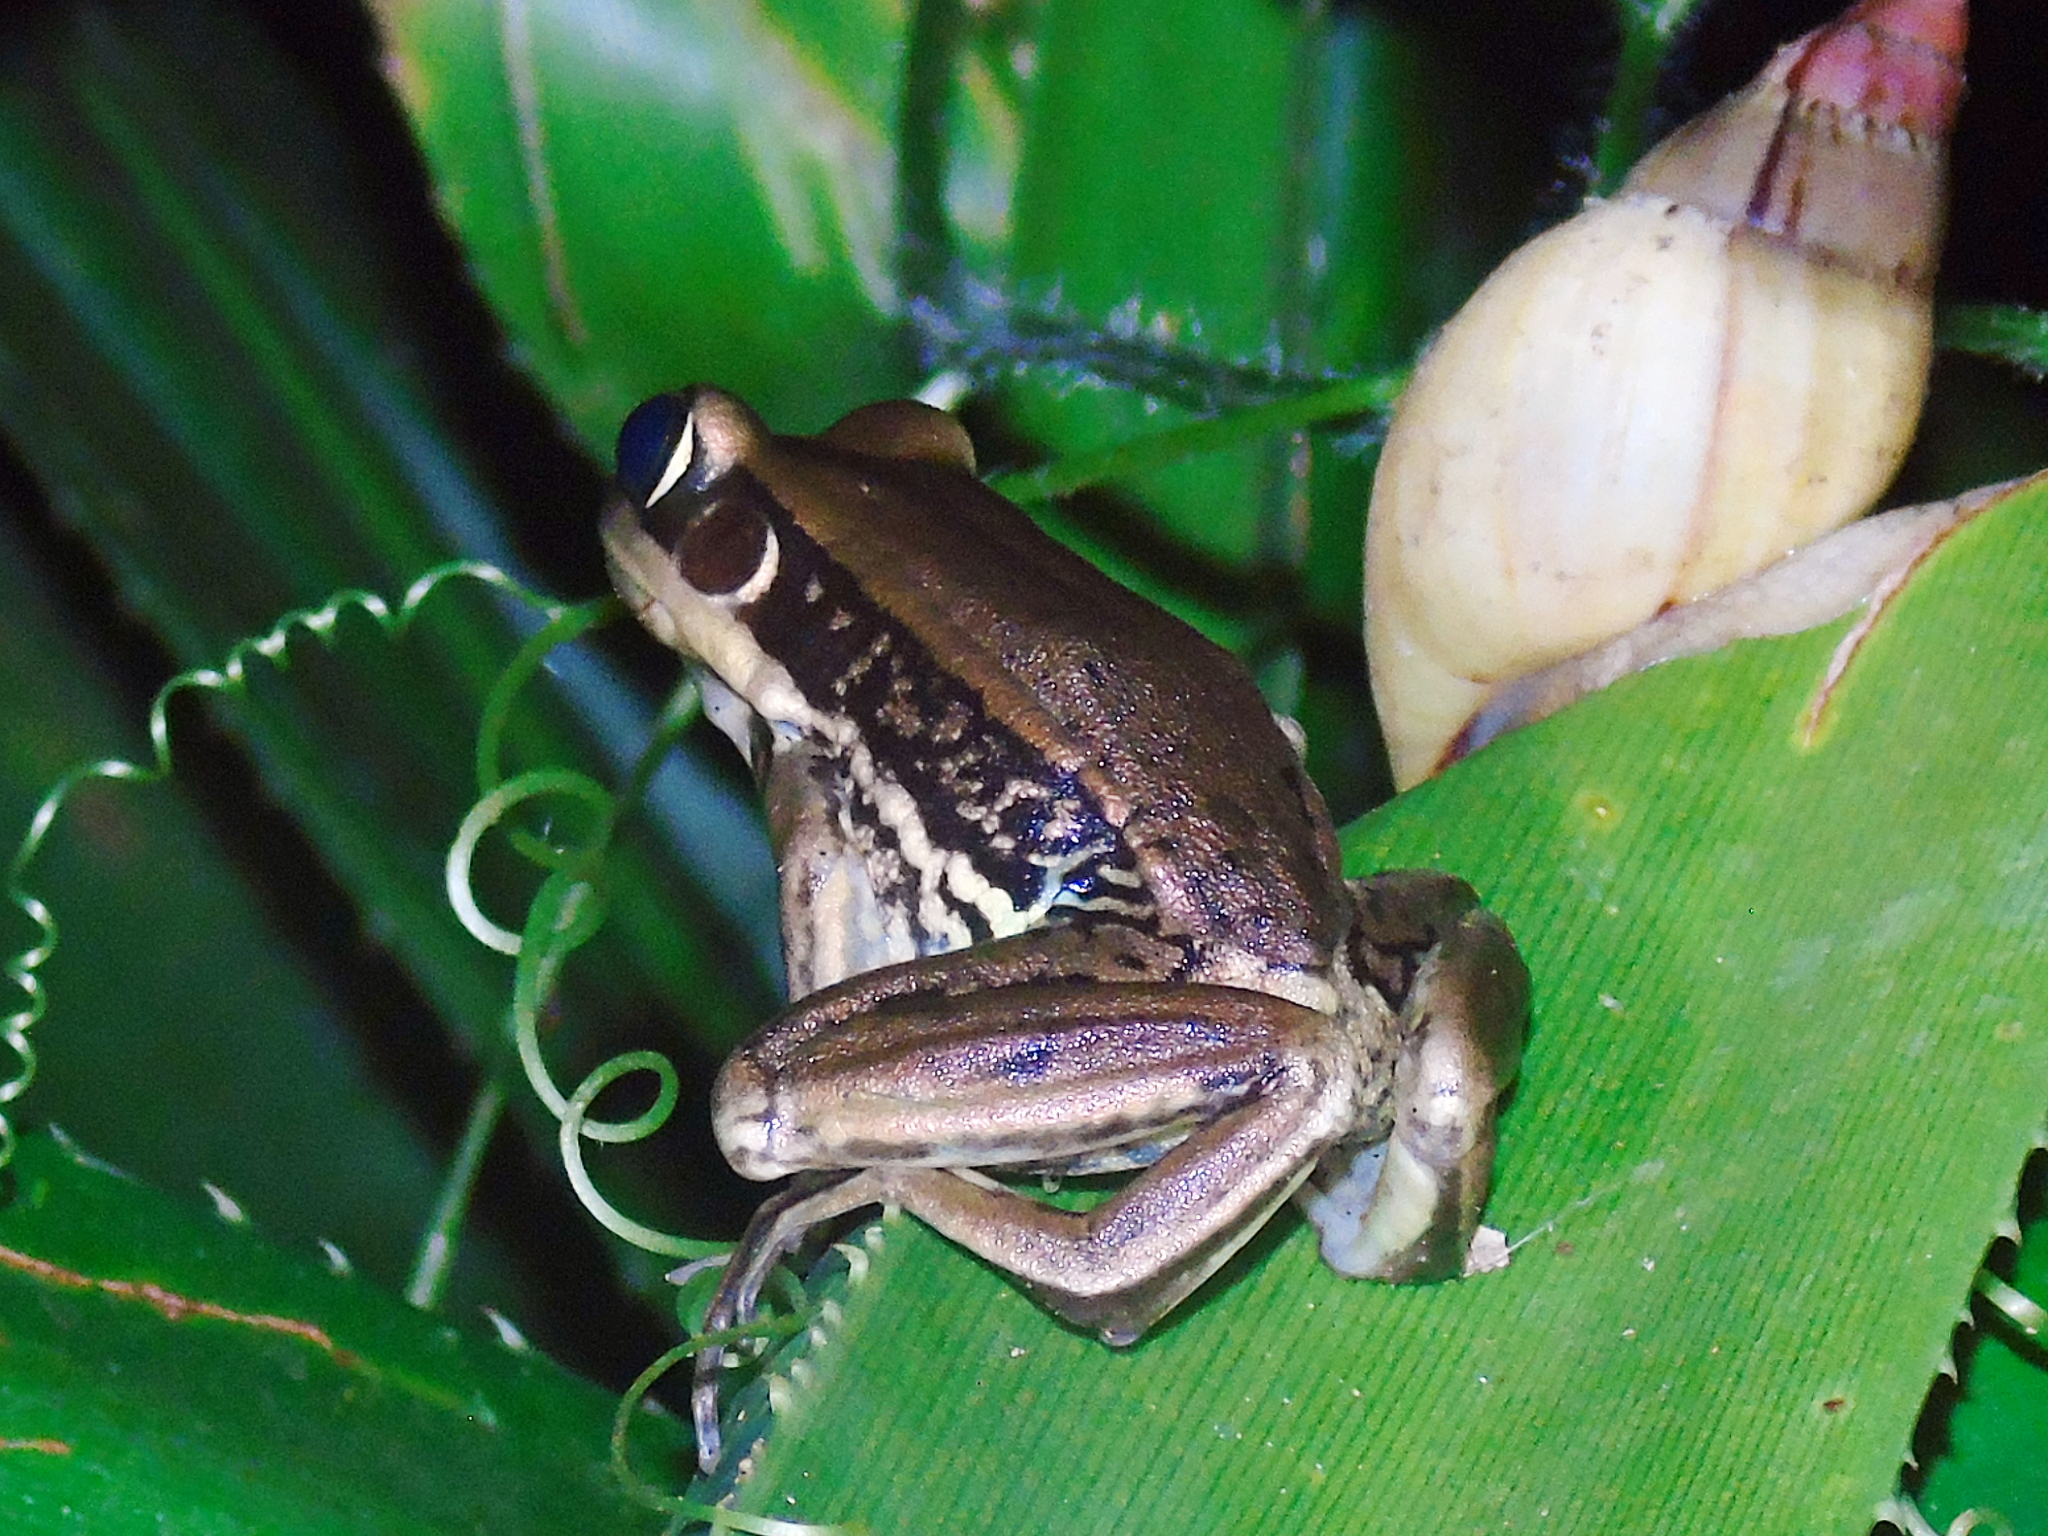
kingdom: Animalia
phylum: Chordata
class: Amphibia
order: Anura
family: Ranidae
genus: Amnirana
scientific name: Amnirana galamensis
